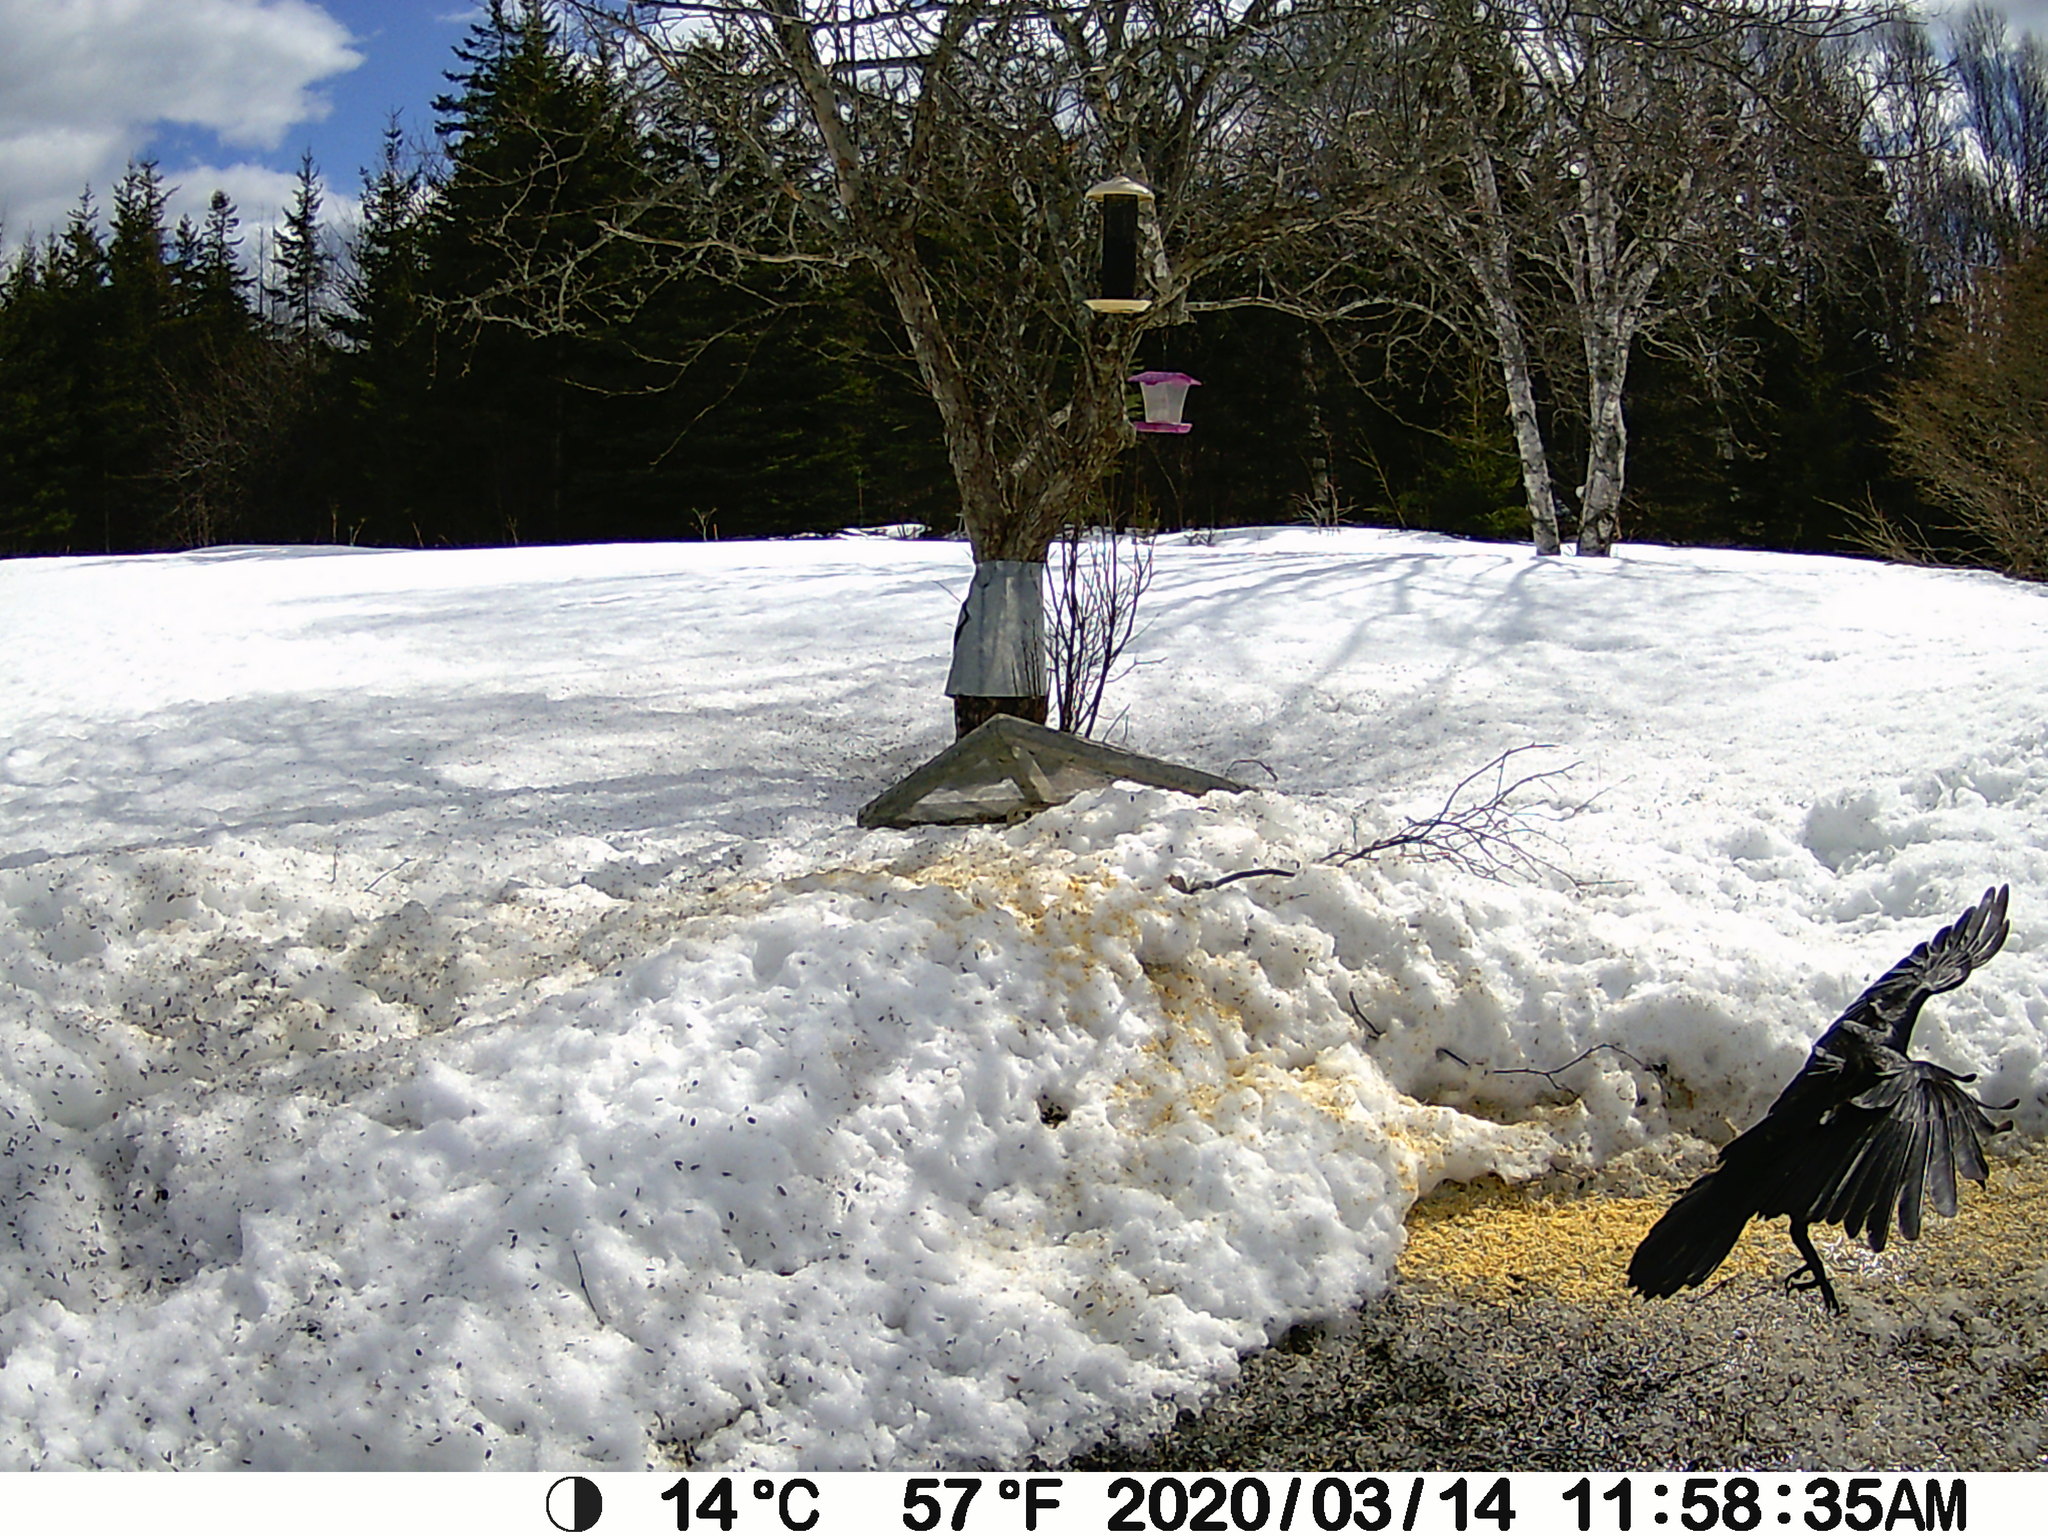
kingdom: Animalia
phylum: Chordata
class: Aves
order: Passeriformes
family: Corvidae
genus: Corvus
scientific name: Corvus brachyrhynchos
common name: American crow
